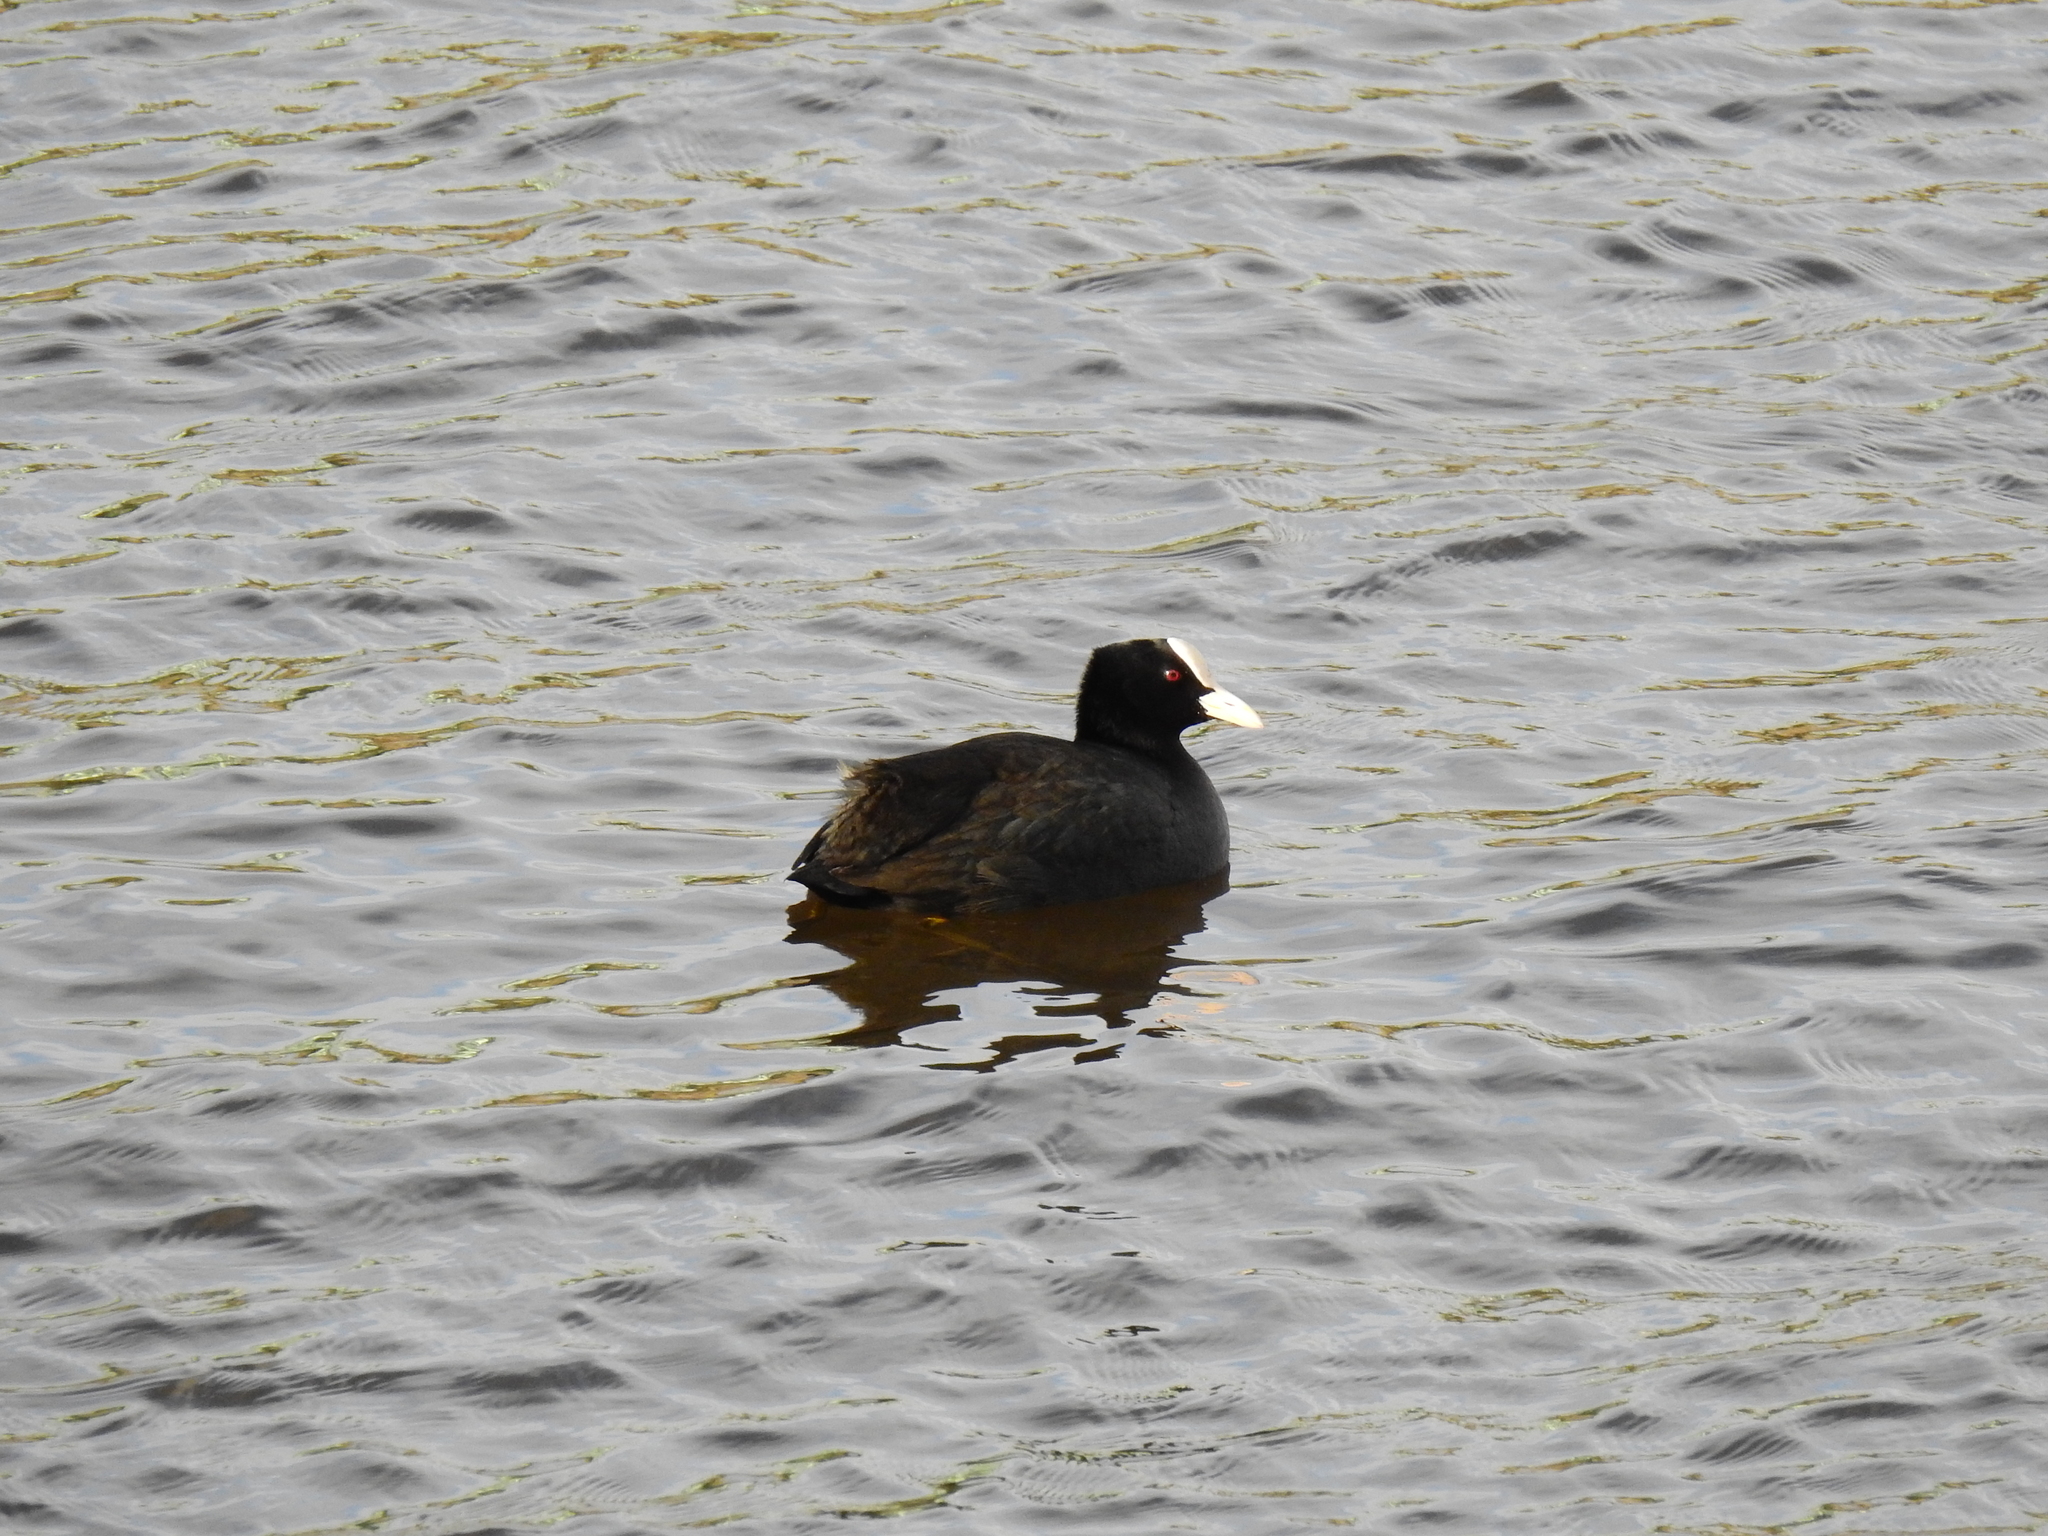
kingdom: Animalia
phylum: Chordata
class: Aves
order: Gruiformes
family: Rallidae
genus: Fulica
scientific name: Fulica atra
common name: Eurasian coot
